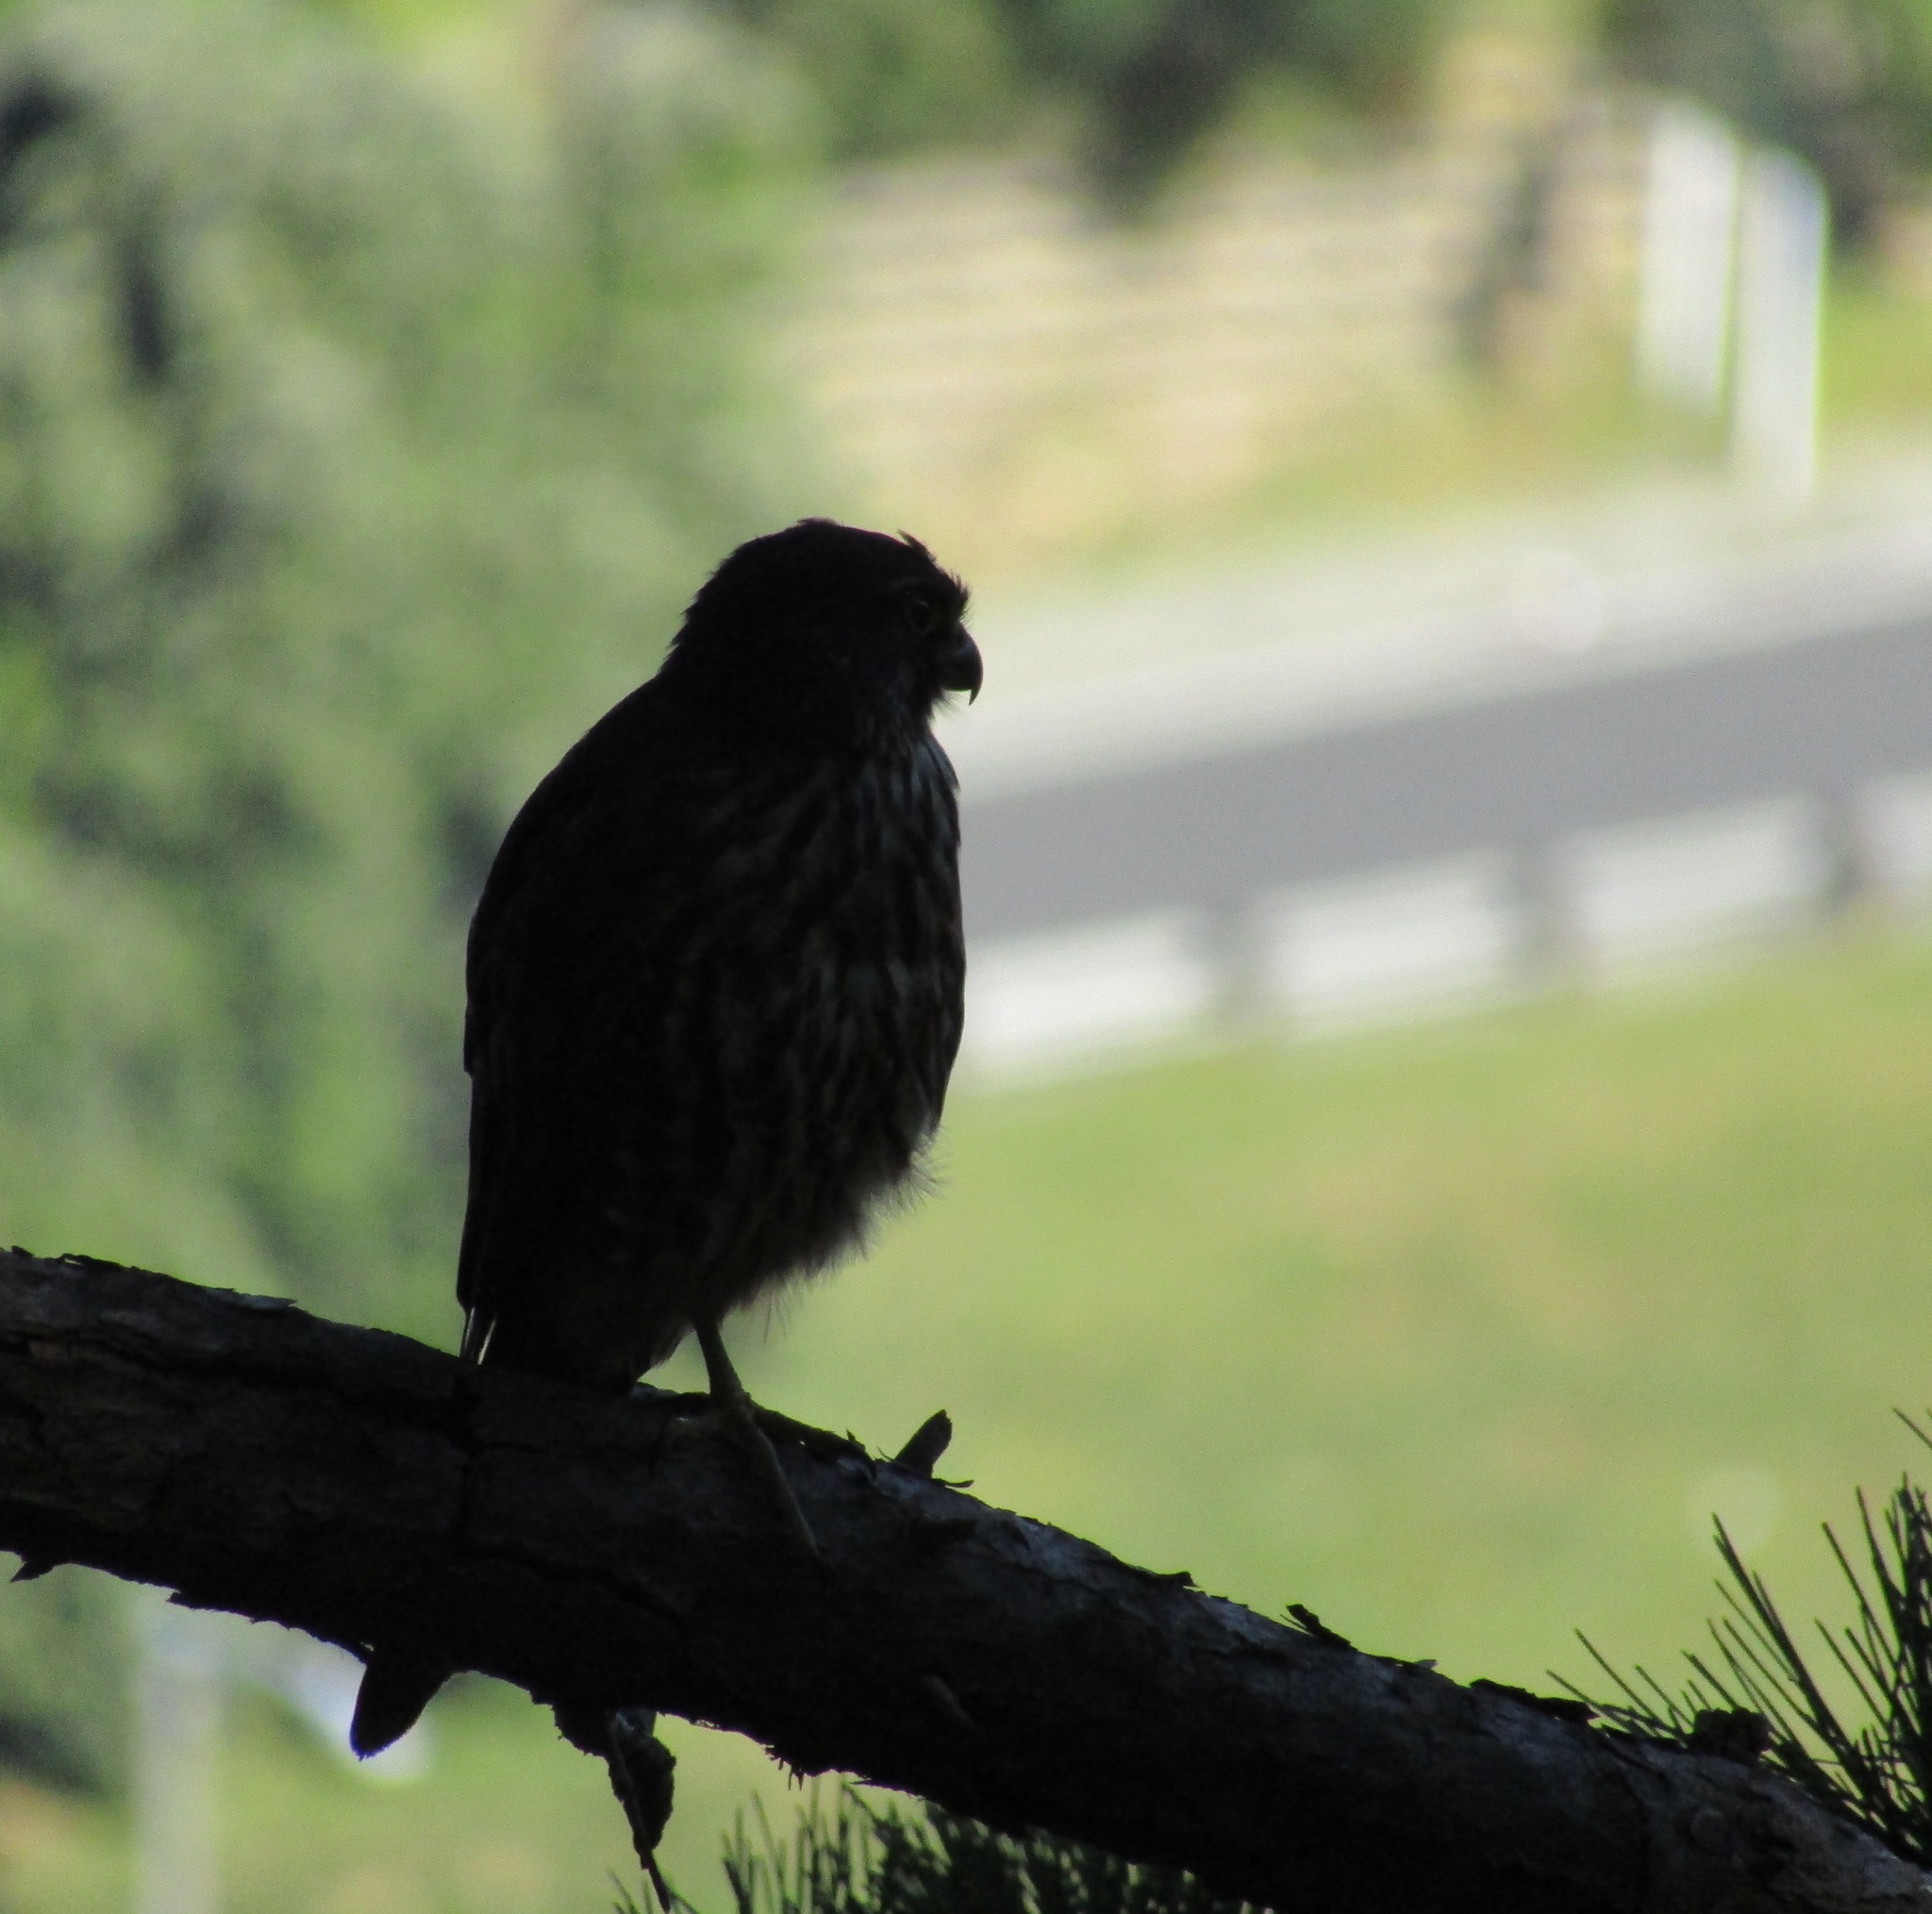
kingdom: Animalia
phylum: Chordata
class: Aves
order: Falconiformes
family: Falconidae
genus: Falco
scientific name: Falco novaeseelandiae
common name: New zealand falcon
